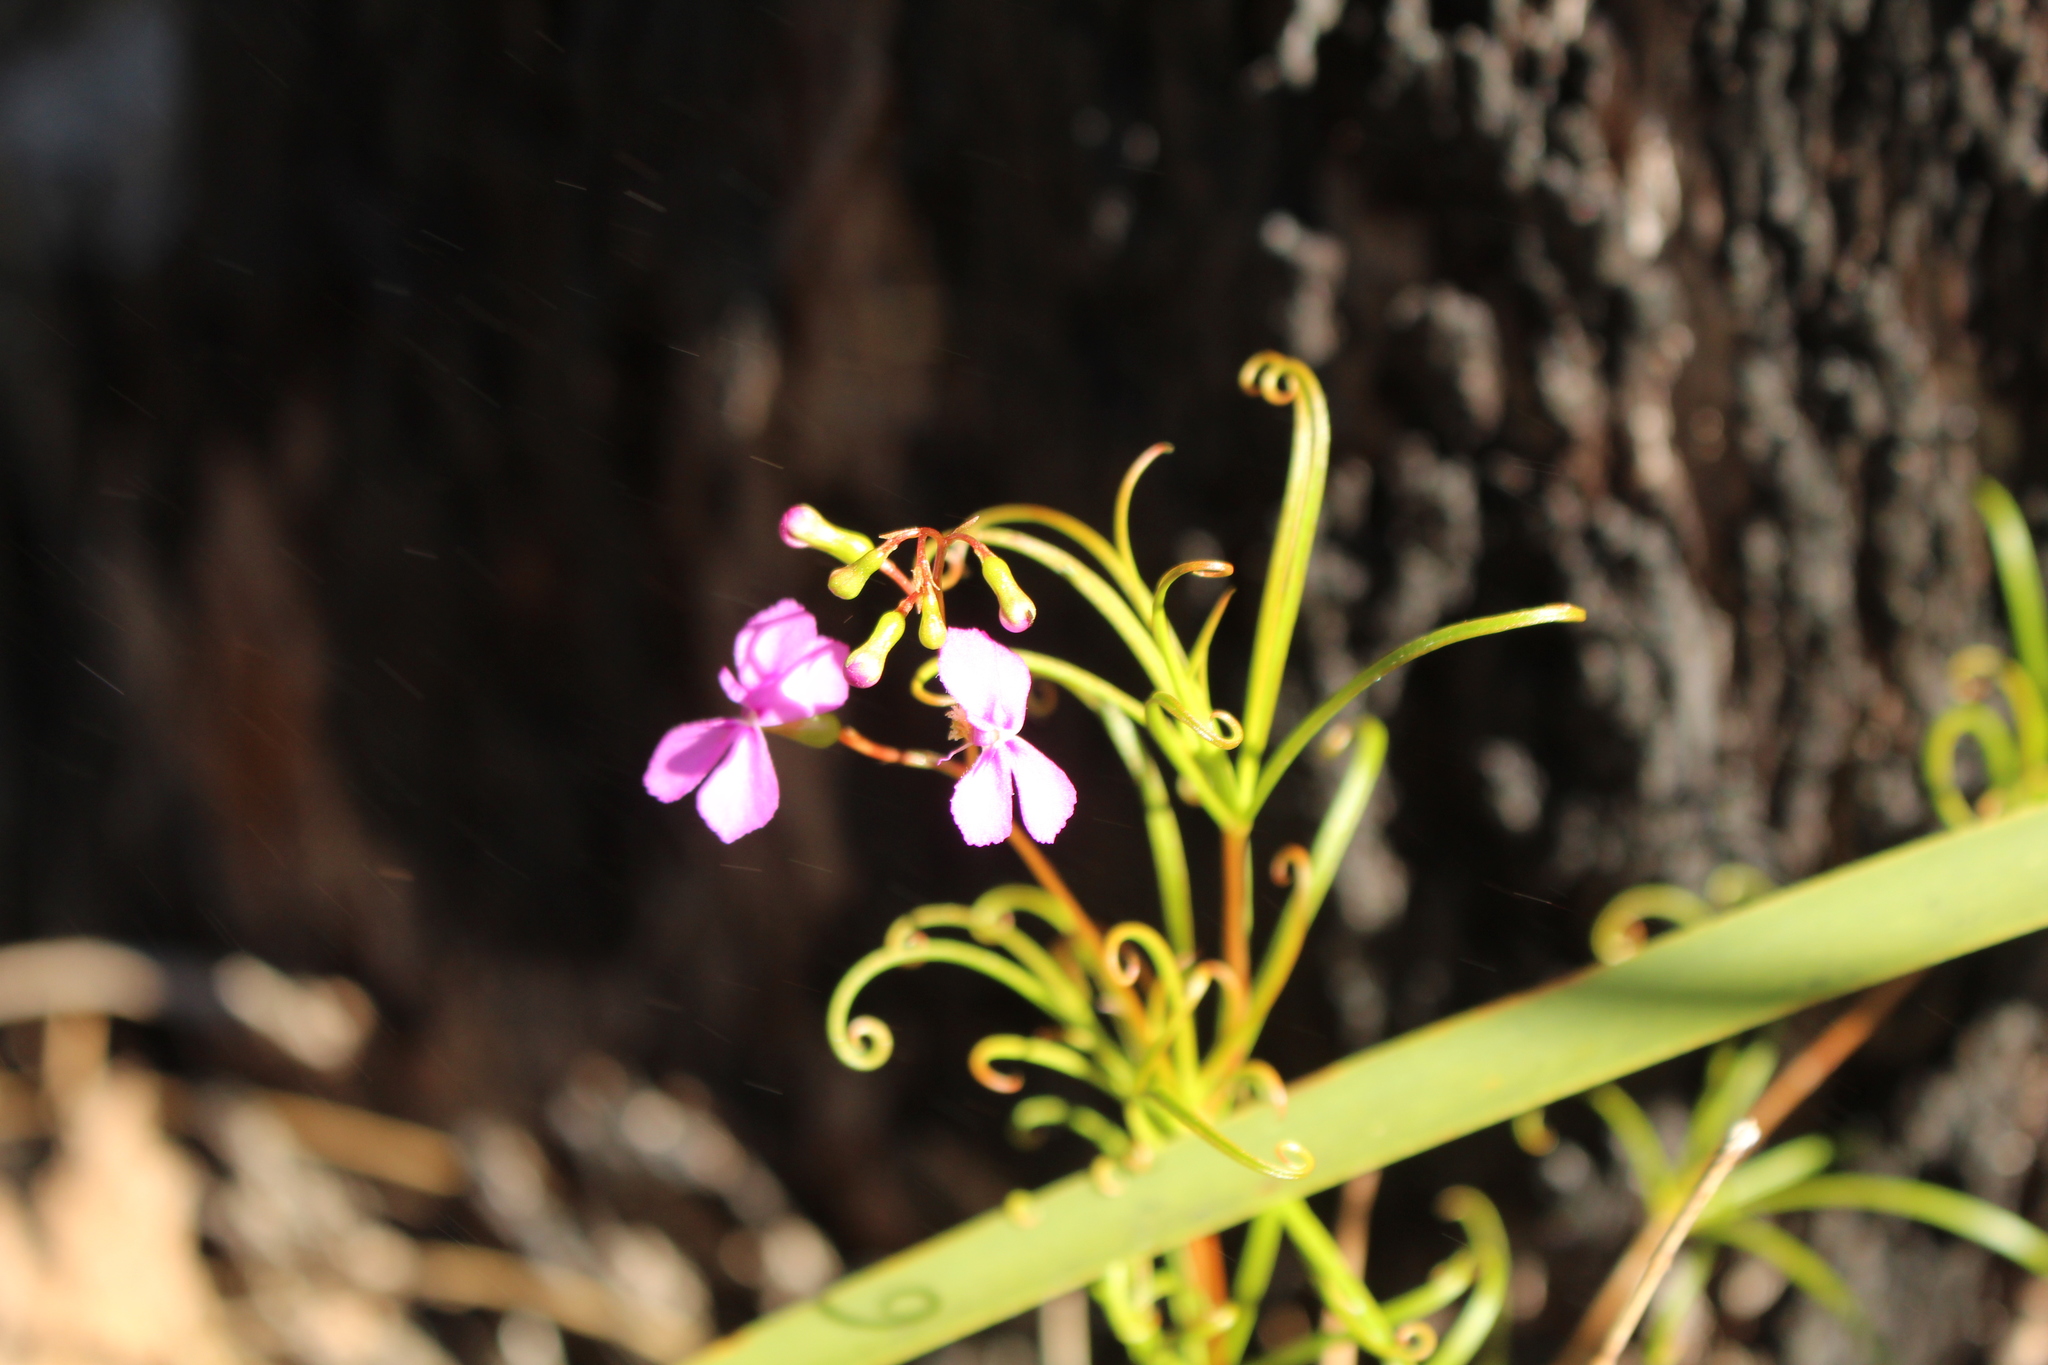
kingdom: Plantae
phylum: Tracheophyta
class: Magnoliopsida
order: Asterales
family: Stylidiaceae
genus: Stylidium
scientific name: Stylidium scandens
